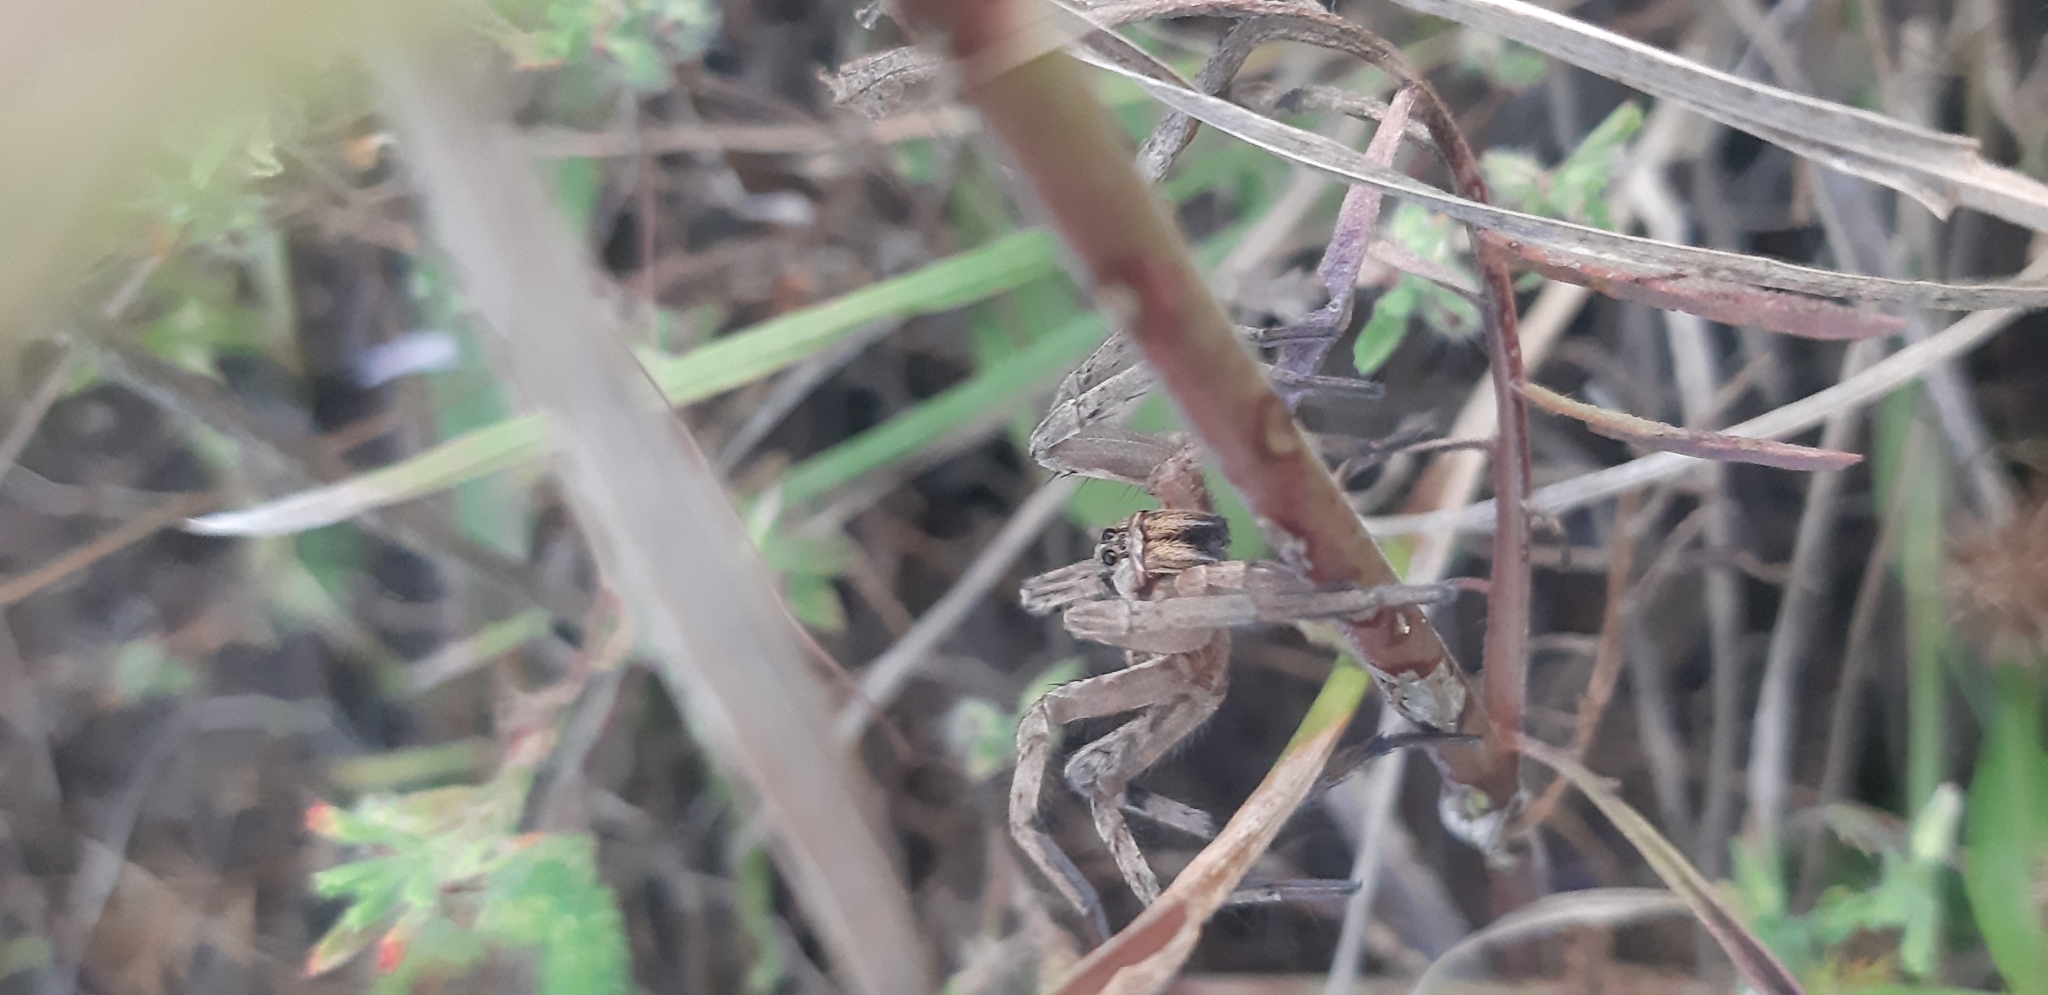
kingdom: Animalia
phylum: Arthropoda
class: Arachnida
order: Araneae
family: Lycosidae
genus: Hogna
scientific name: Hogna radiata
